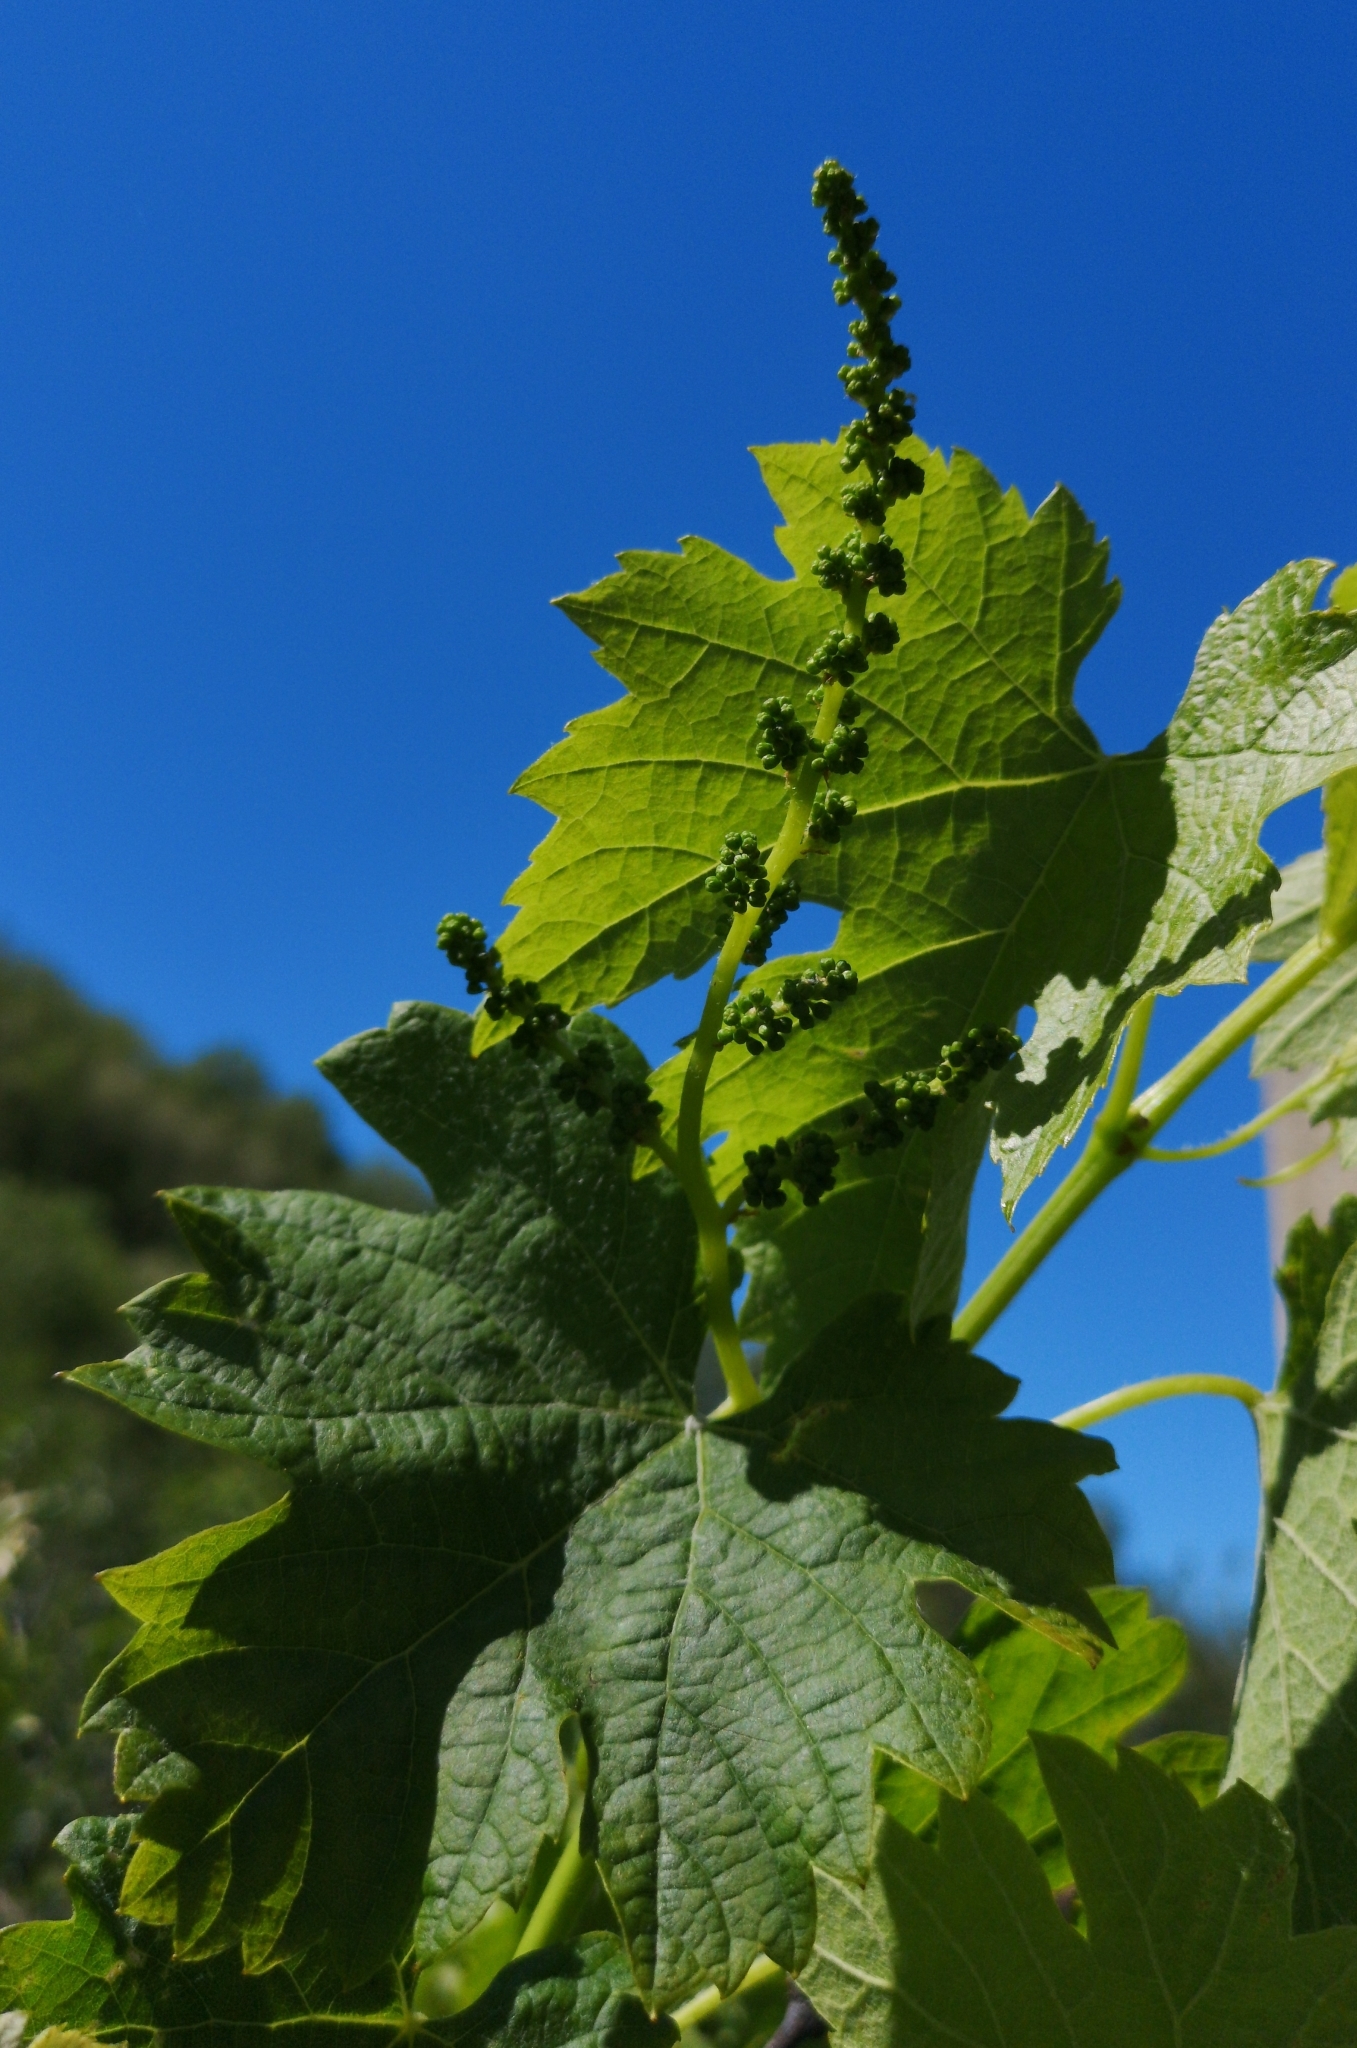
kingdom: Plantae
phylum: Tracheophyta
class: Magnoliopsida
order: Vitales
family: Vitaceae
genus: Vitis
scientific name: Vitis vinifera
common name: Grape-vine
